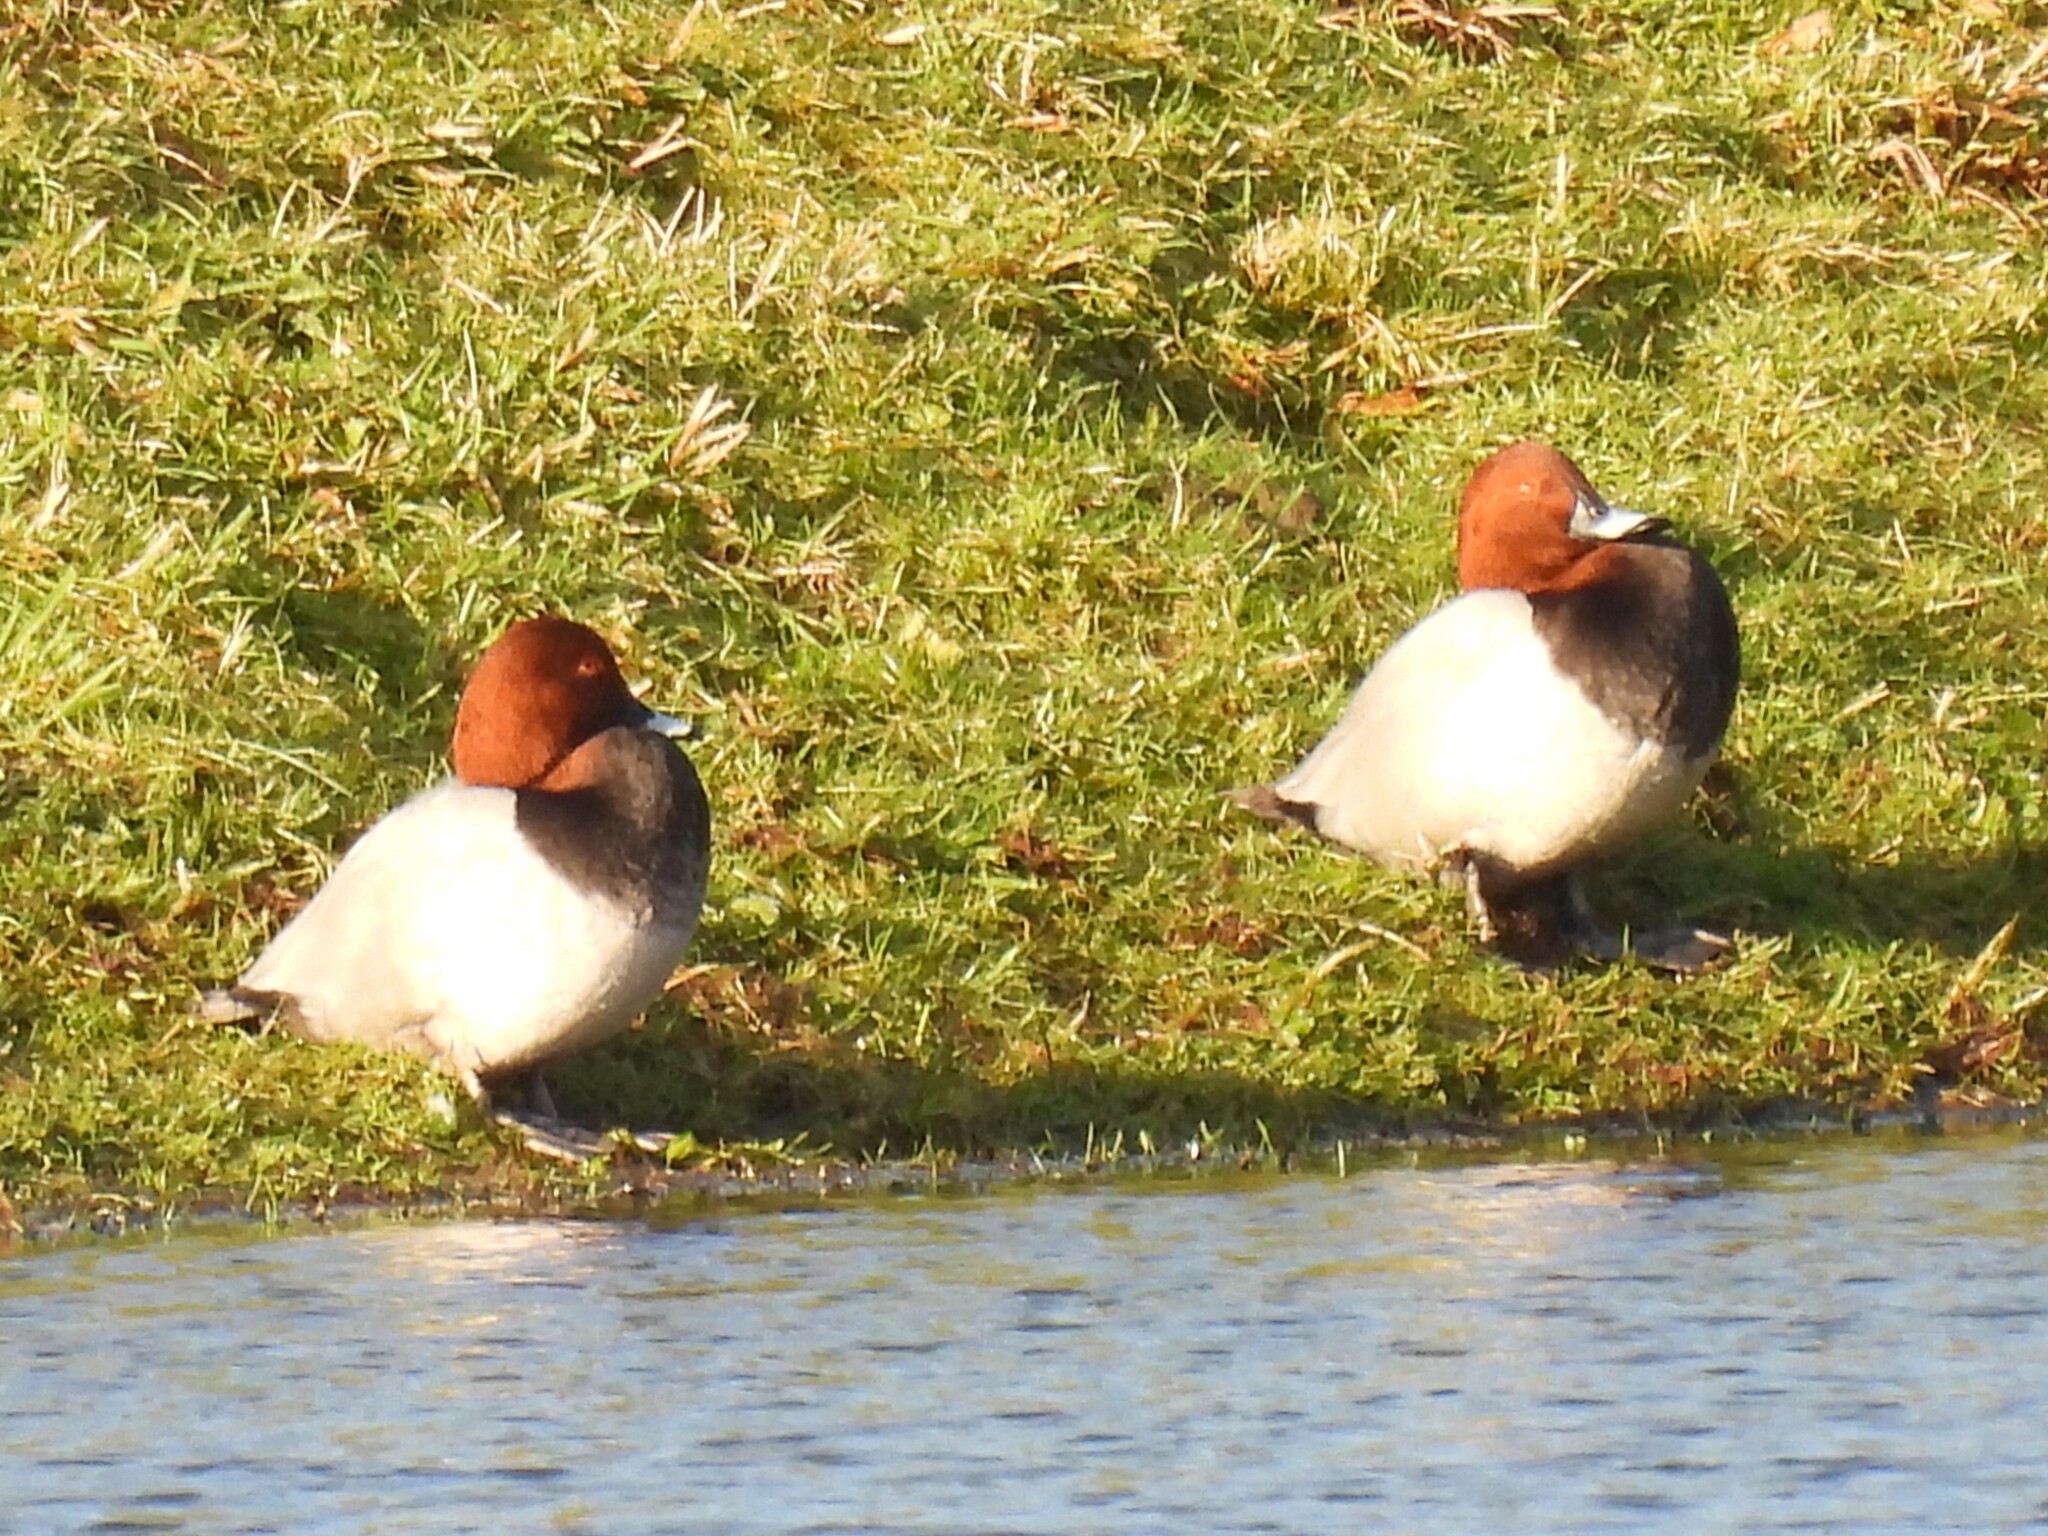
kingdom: Animalia
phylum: Chordata
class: Aves
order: Anseriformes
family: Anatidae
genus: Aythya
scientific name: Aythya ferina
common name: Common pochard
